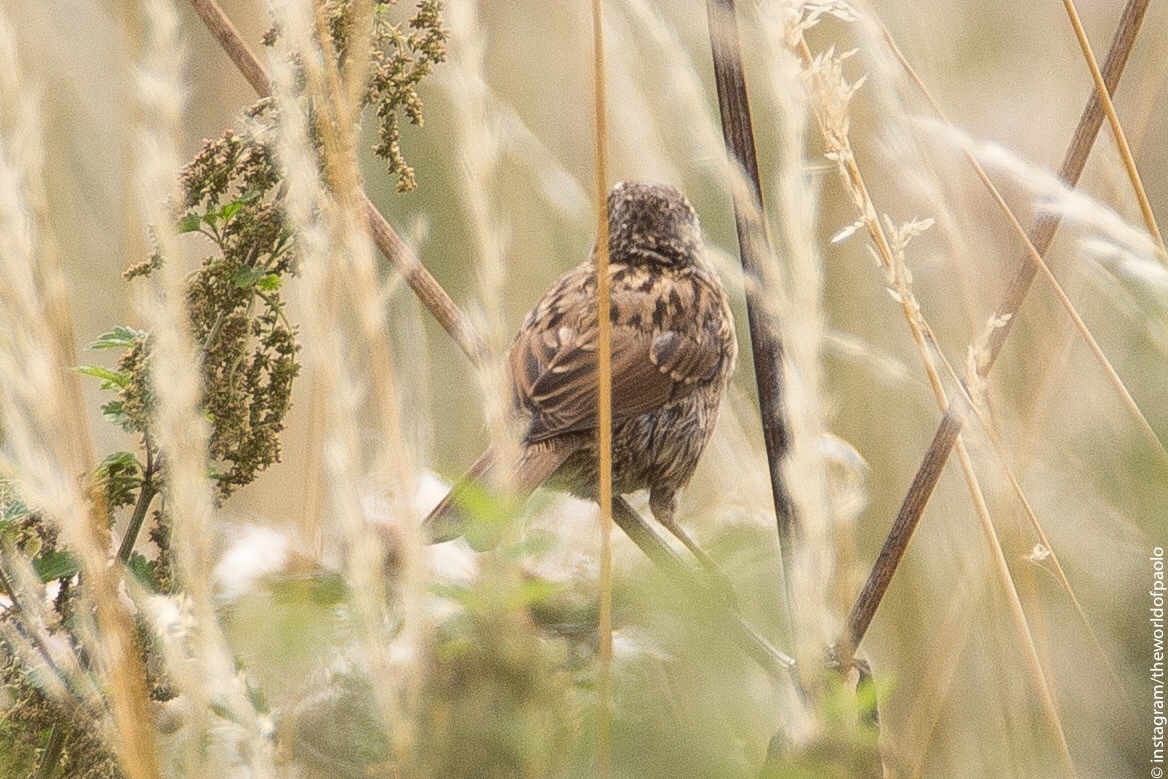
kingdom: Animalia
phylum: Chordata
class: Aves
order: Passeriformes
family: Prunellidae
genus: Prunella
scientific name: Prunella modularis
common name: Dunnock
